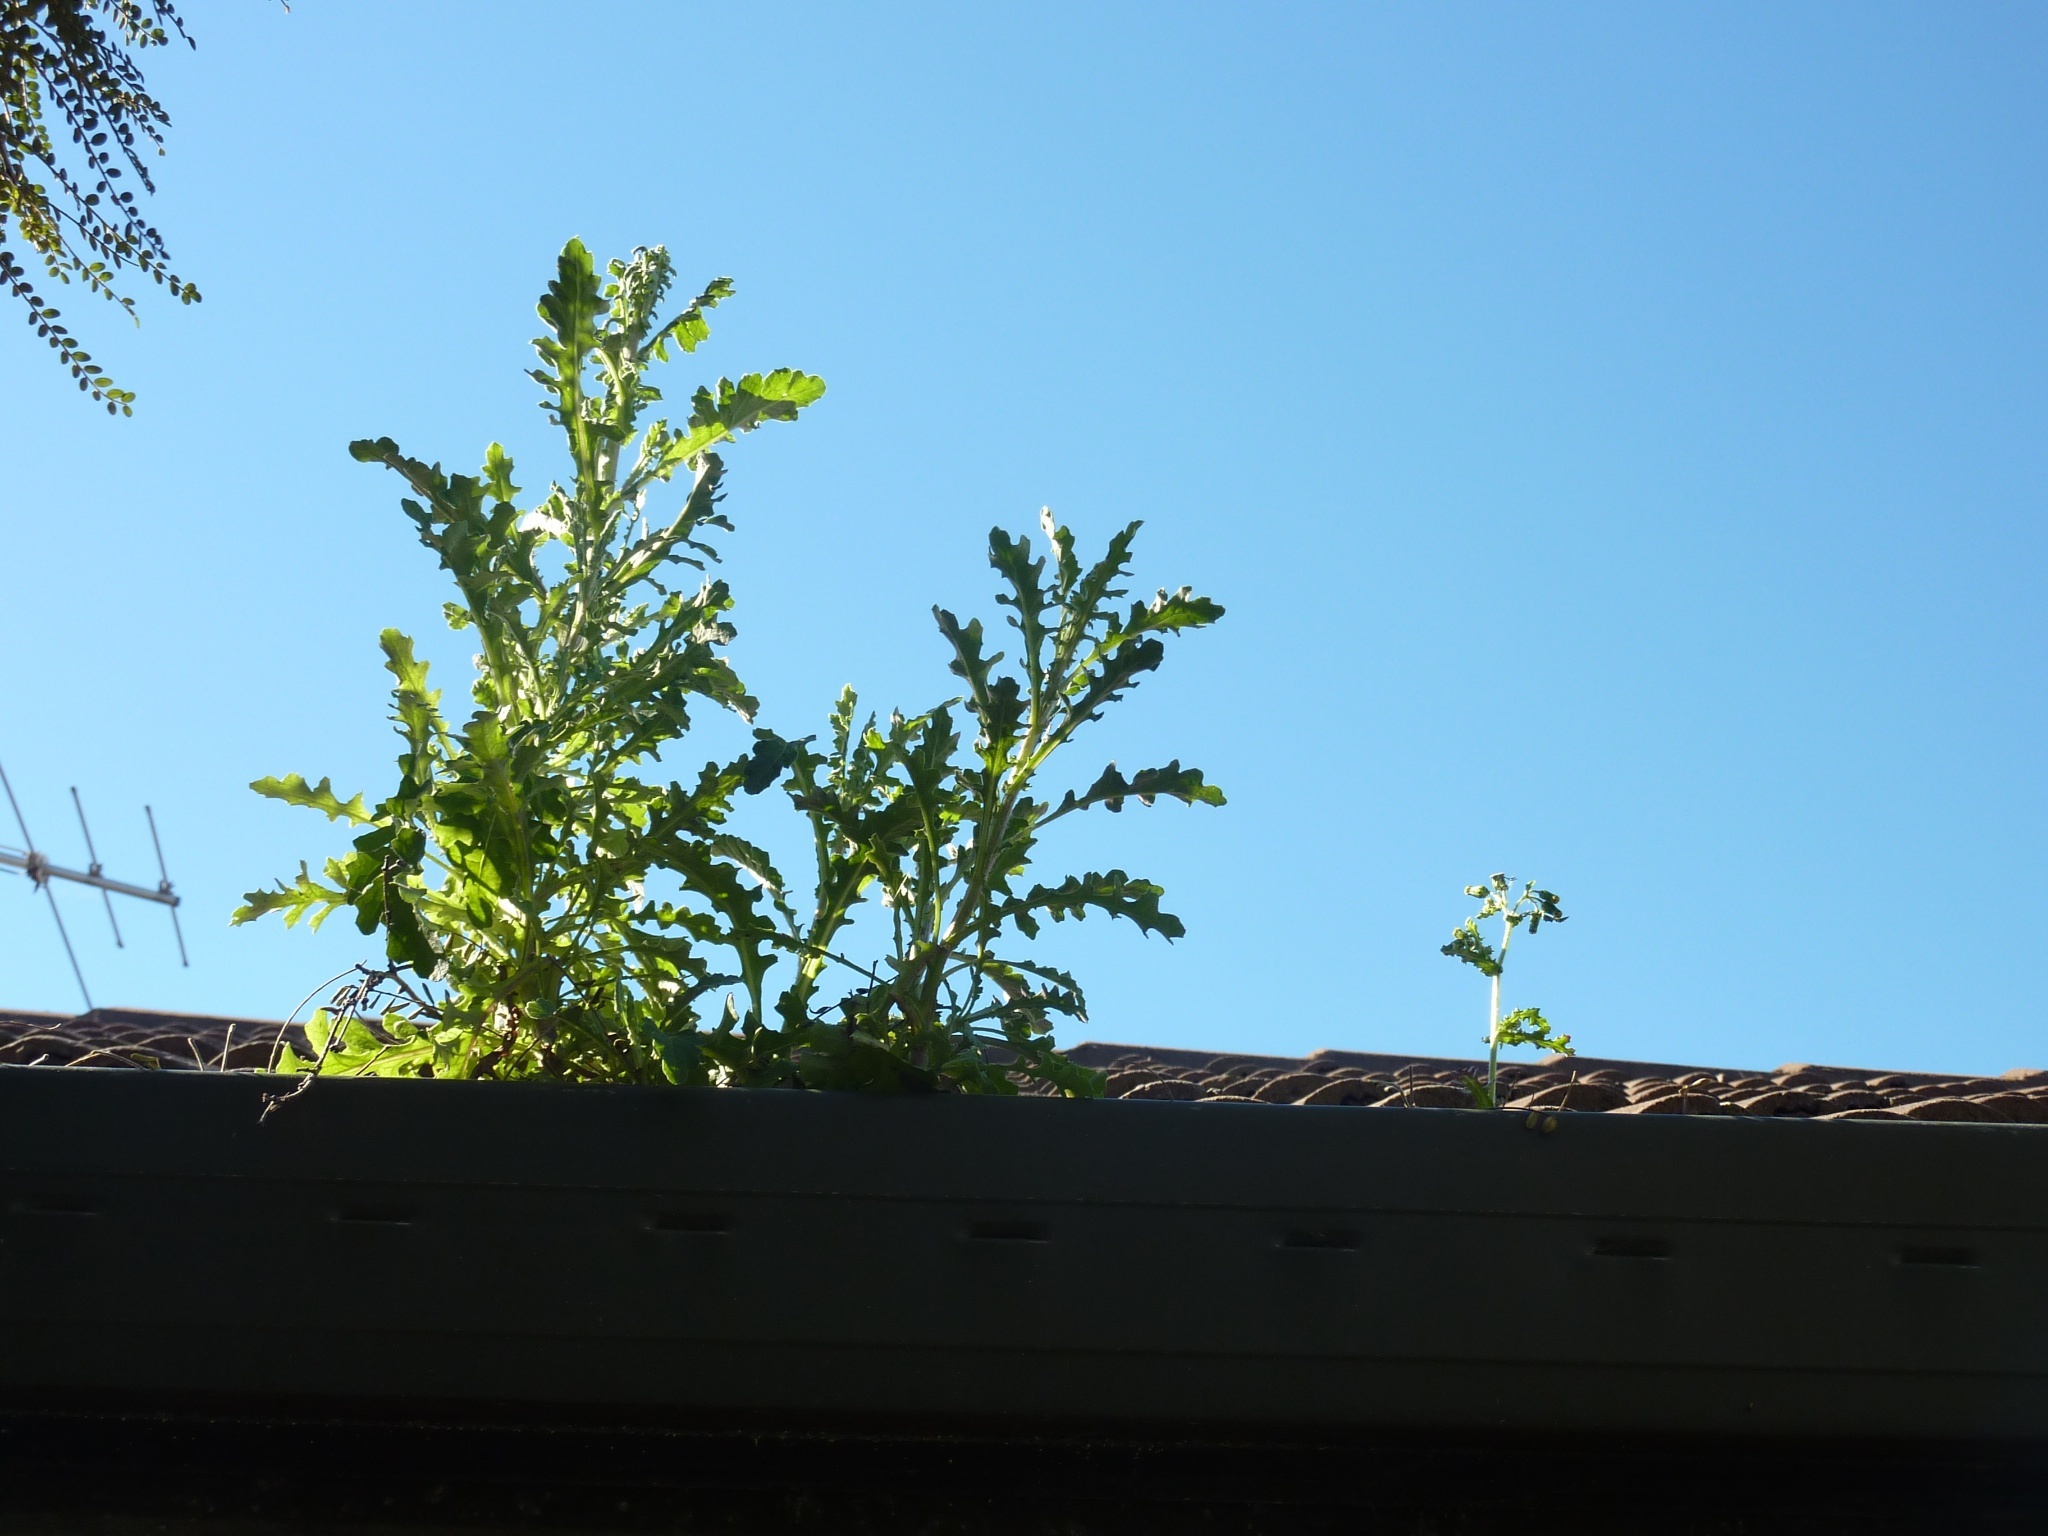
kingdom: Plantae
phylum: Tracheophyta
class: Magnoliopsida
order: Asterales
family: Asteraceae
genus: Senecio
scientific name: Senecio glomeratus
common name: Cutleaf burnweed
